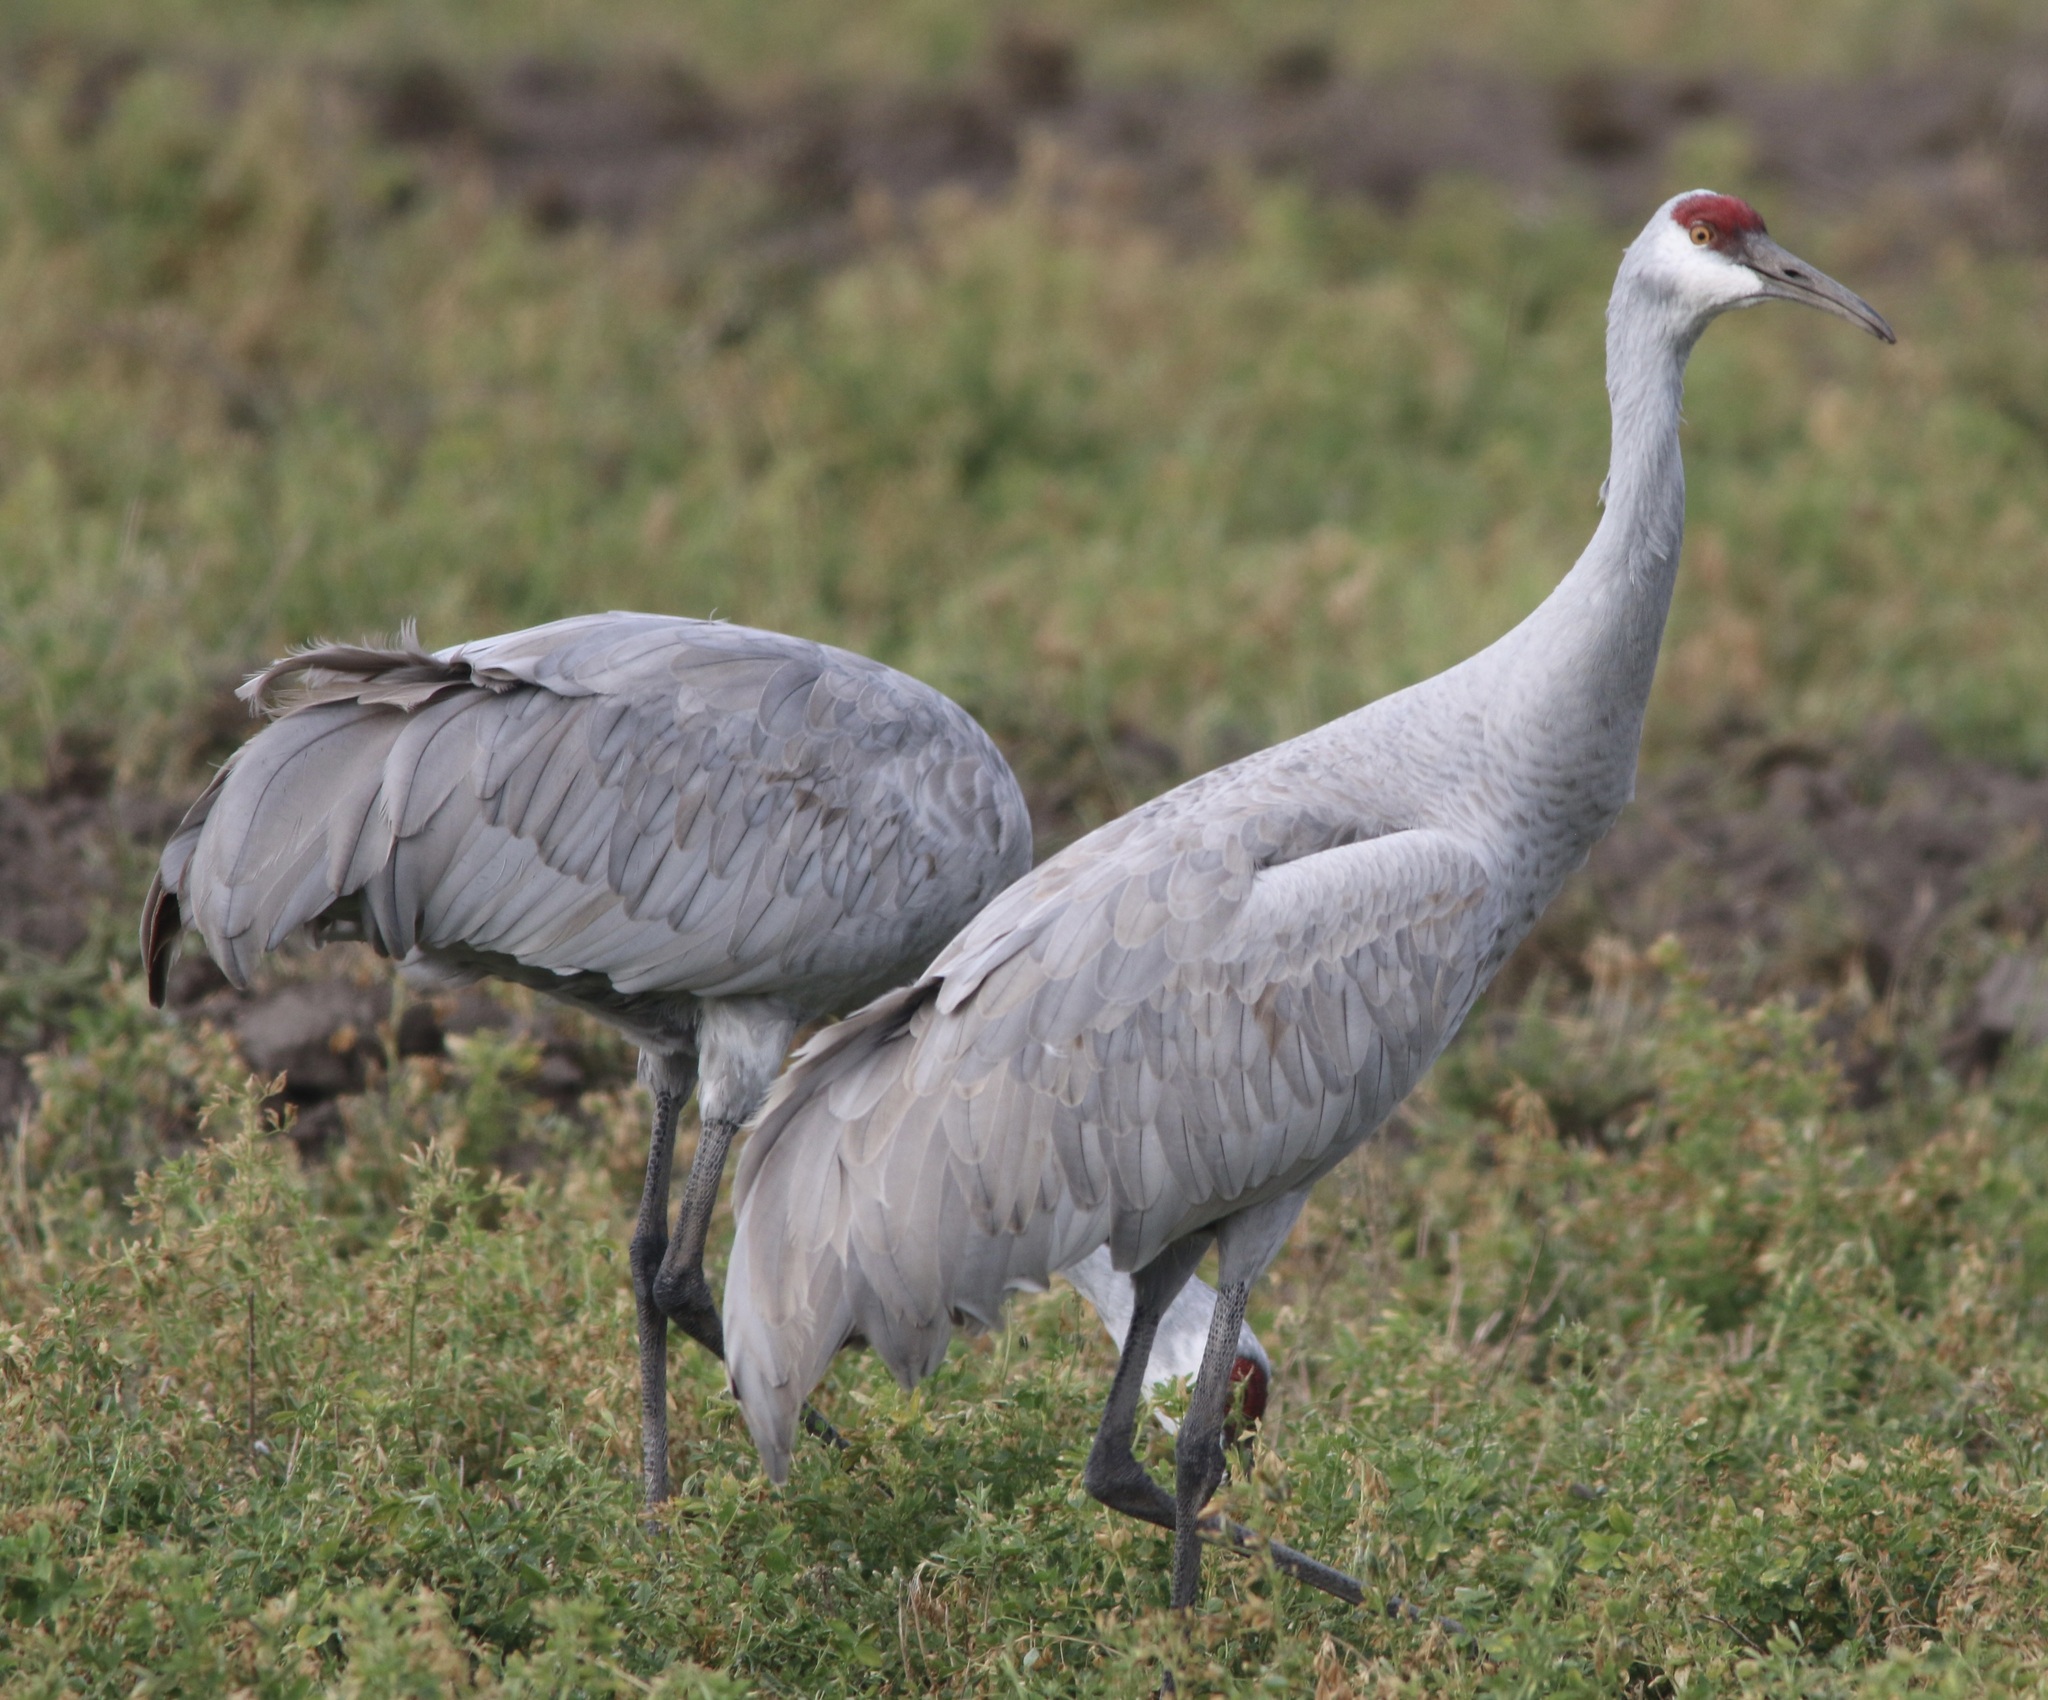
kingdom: Animalia
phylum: Chordata
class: Aves
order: Gruiformes
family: Gruidae
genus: Grus
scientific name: Grus canadensis
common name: Sandhill crane
